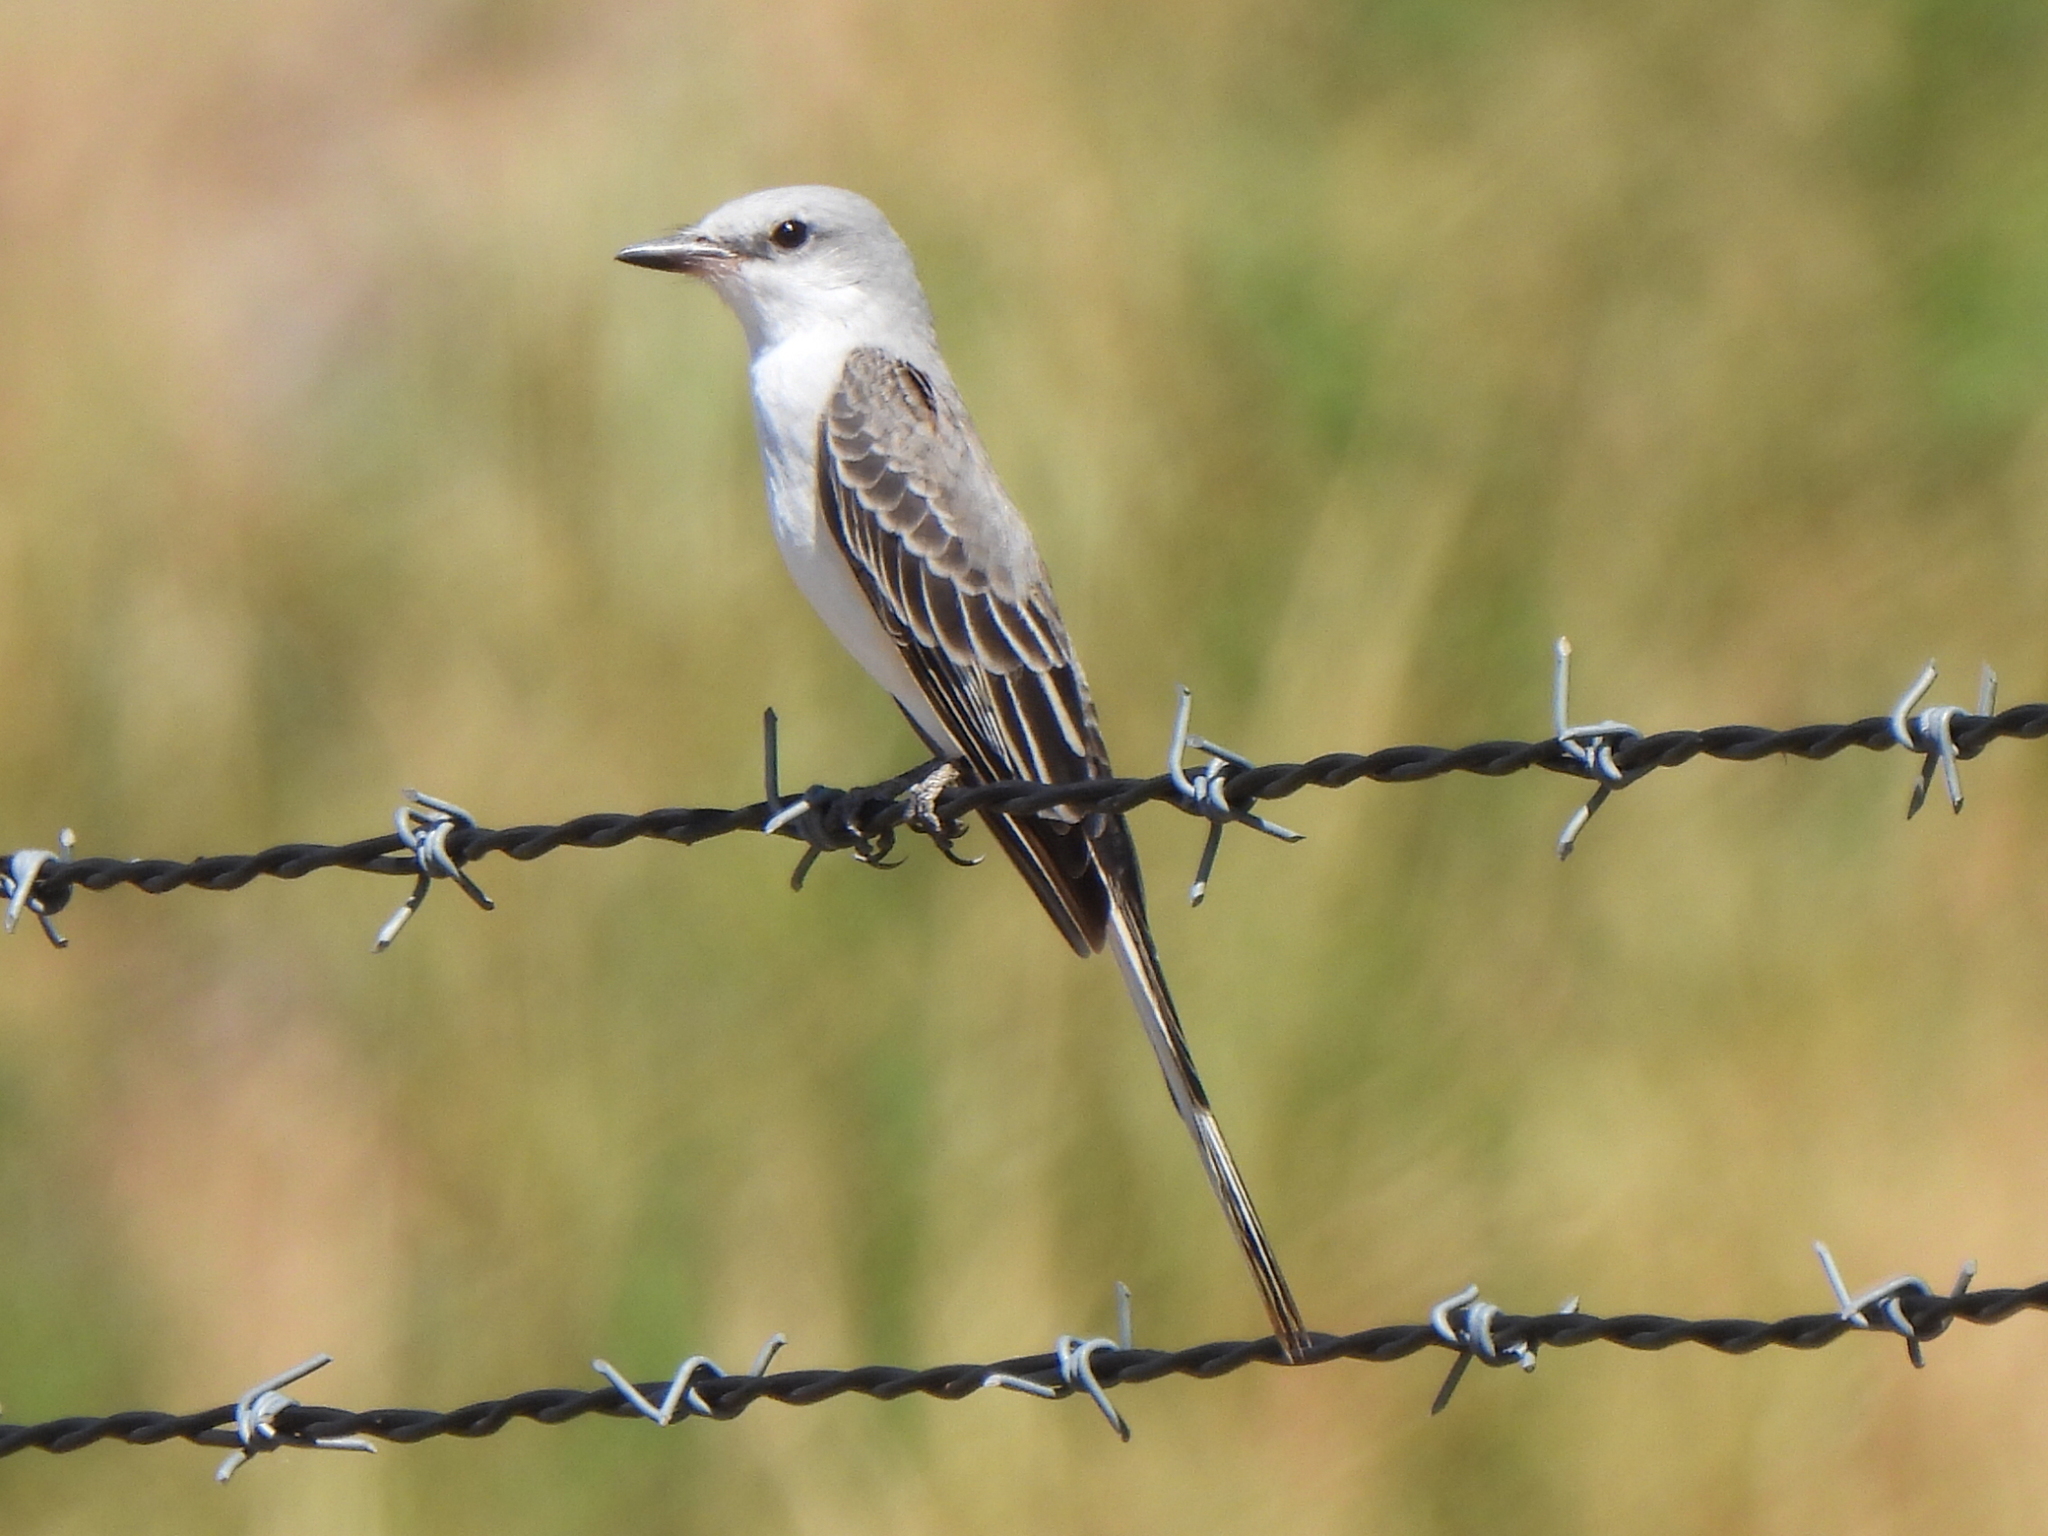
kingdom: Animalia
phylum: Chordata
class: Aves
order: Passeriformes
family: Tyrannidae
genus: Tyrannus
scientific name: Tyrannus forficatus
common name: Scissor-tailed flycatcher
